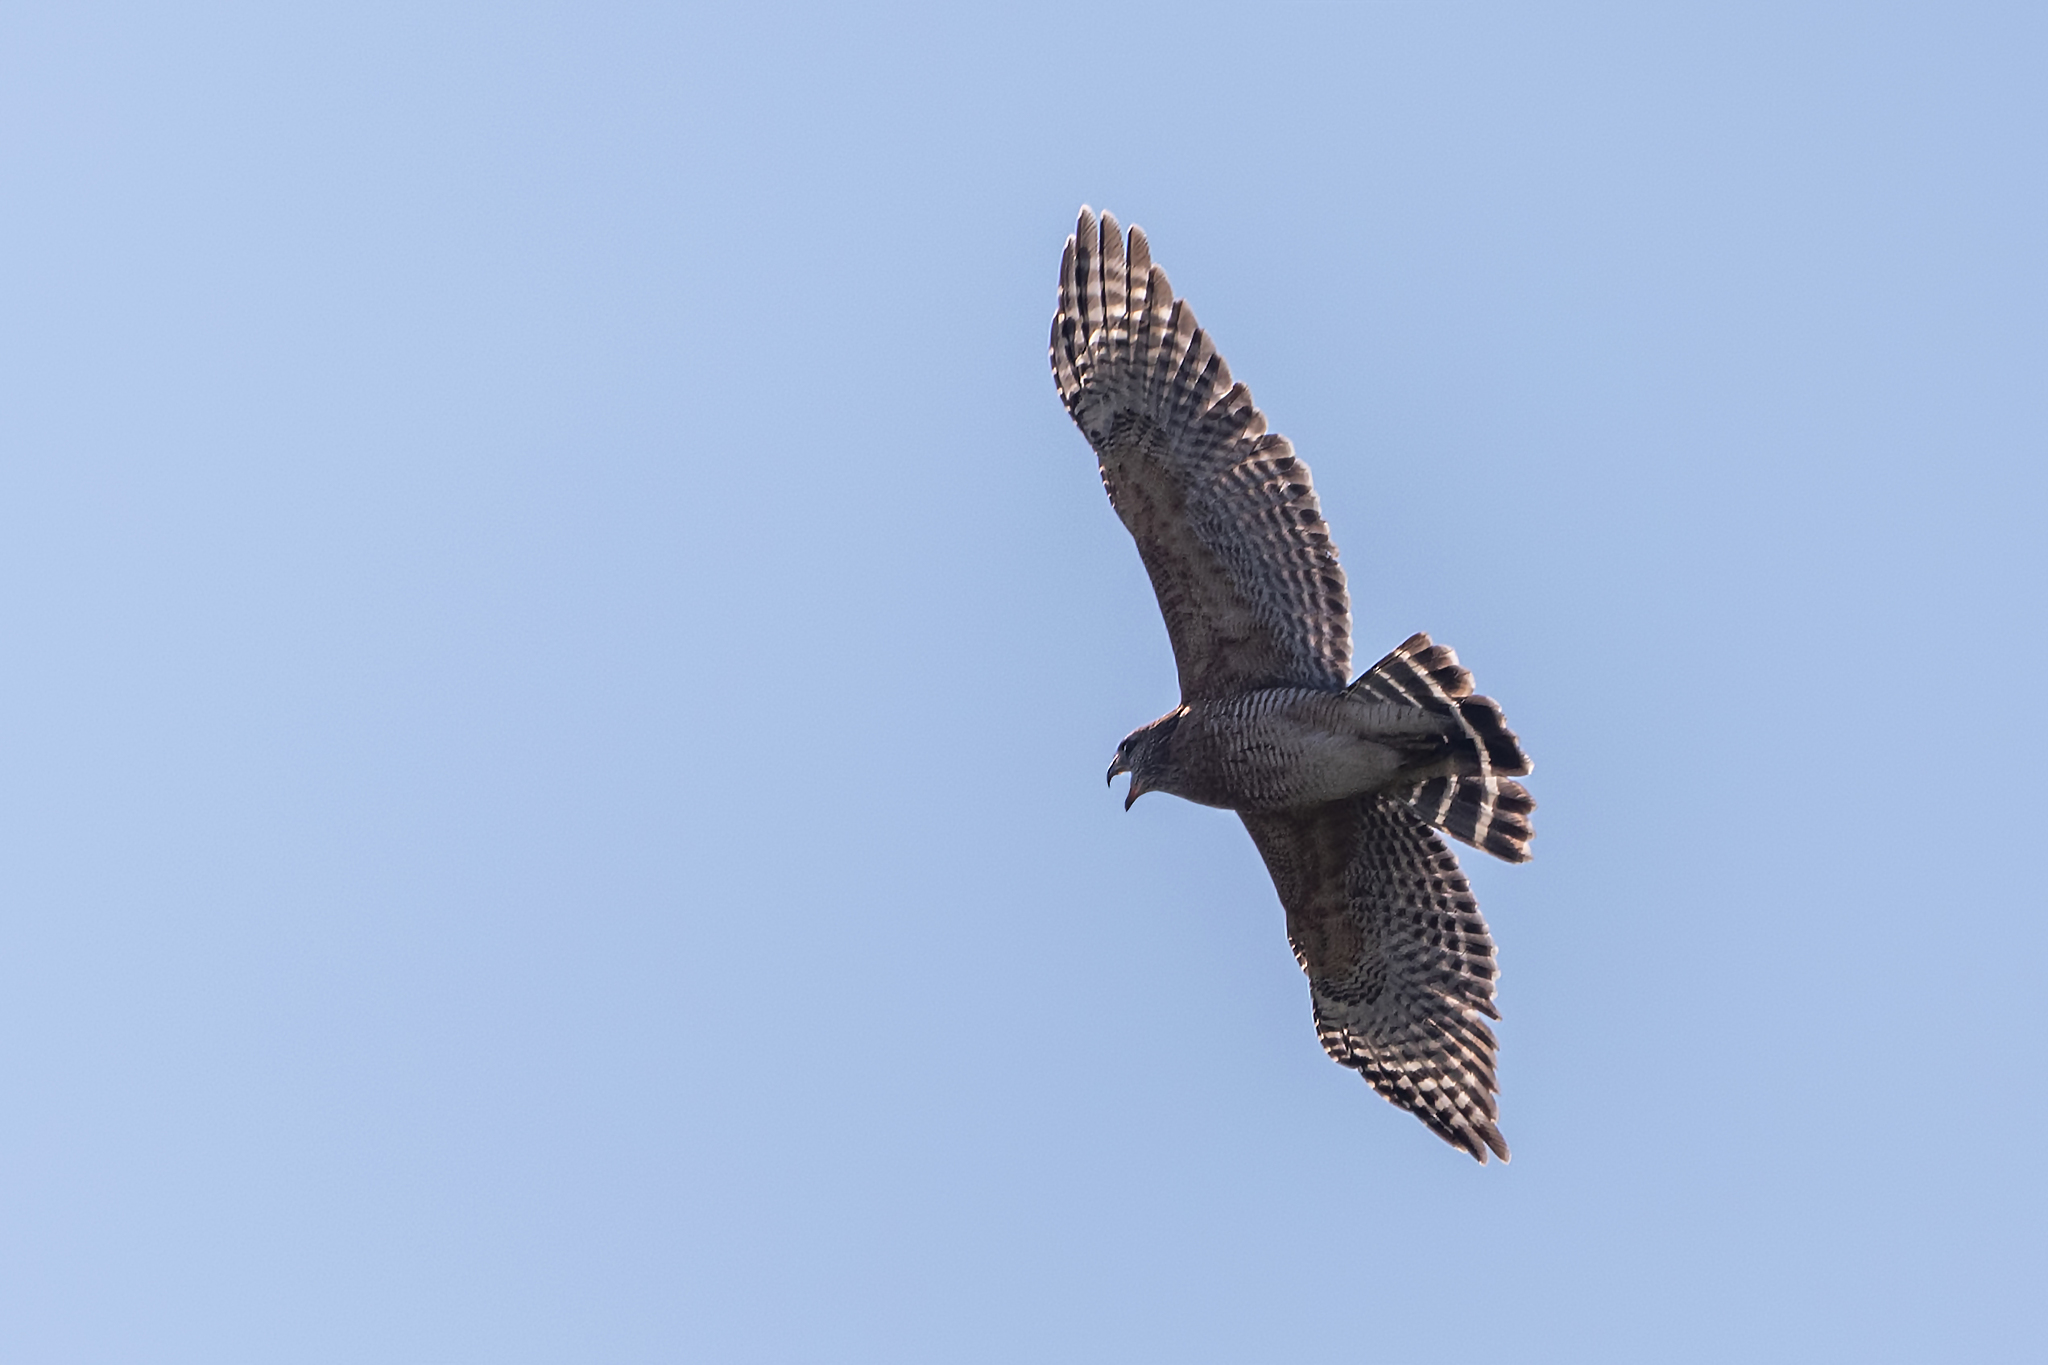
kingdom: Animalia
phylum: Chordata
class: Aves
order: Accipitriformes
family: Accipitridae
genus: Buteo
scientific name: Buteo lineatus
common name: Red-shouldered hawk
